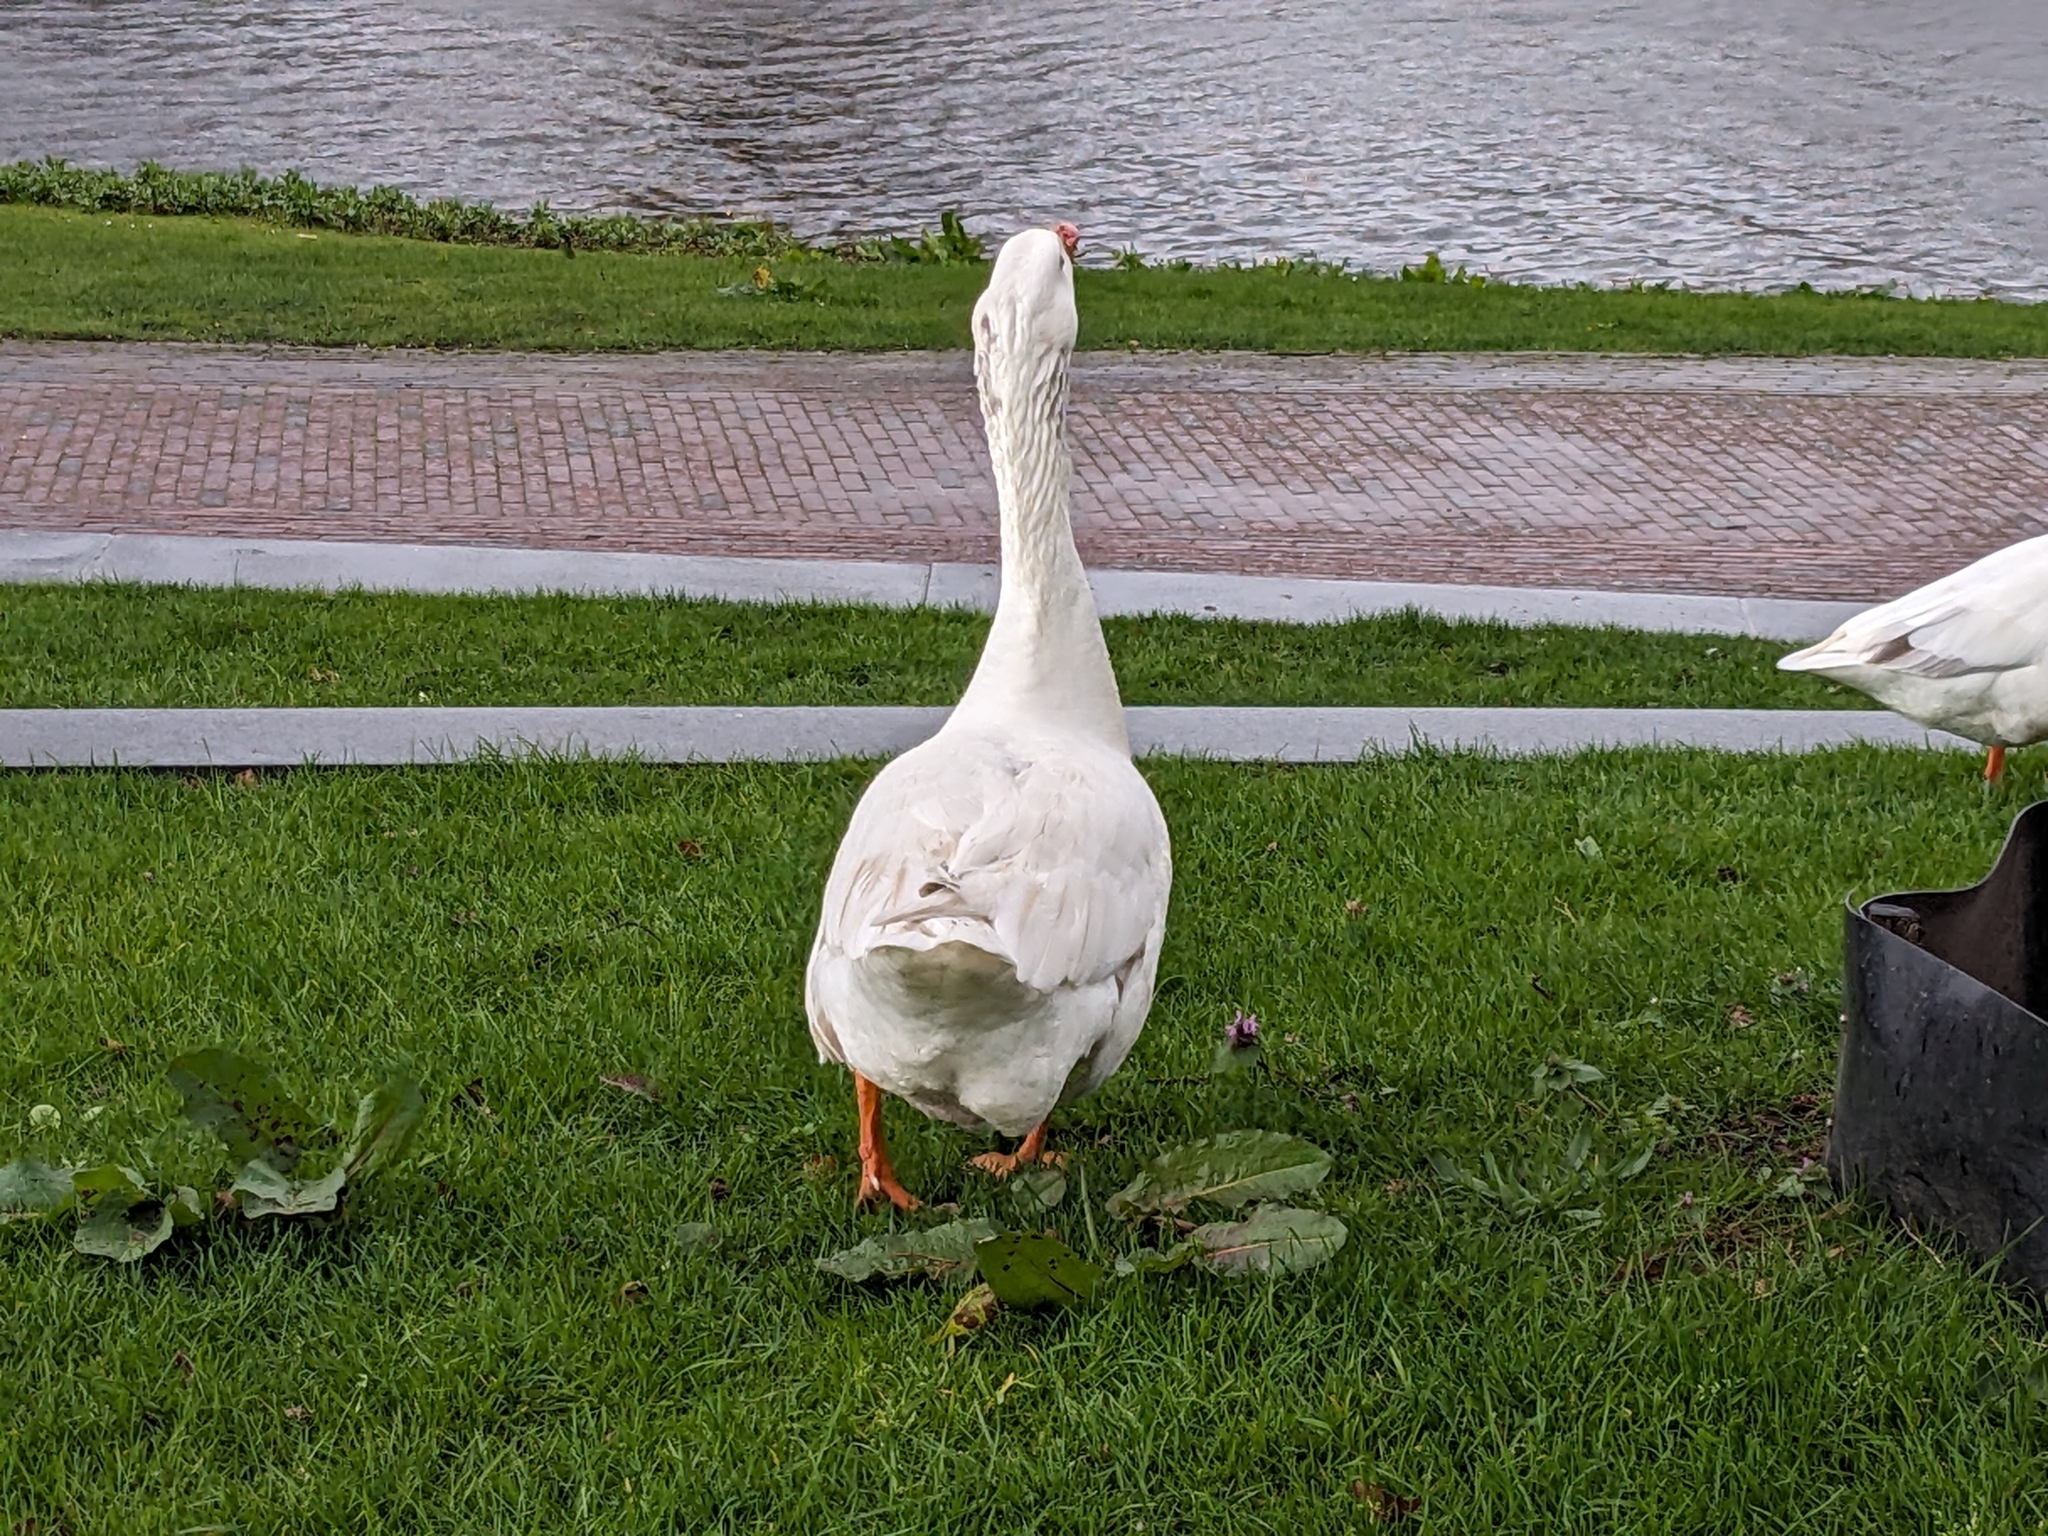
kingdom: Animalia
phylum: Chordata
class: Aves
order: Anseriformes
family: Anatidae
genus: Anser
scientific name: Anser anser
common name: Greylag goose
